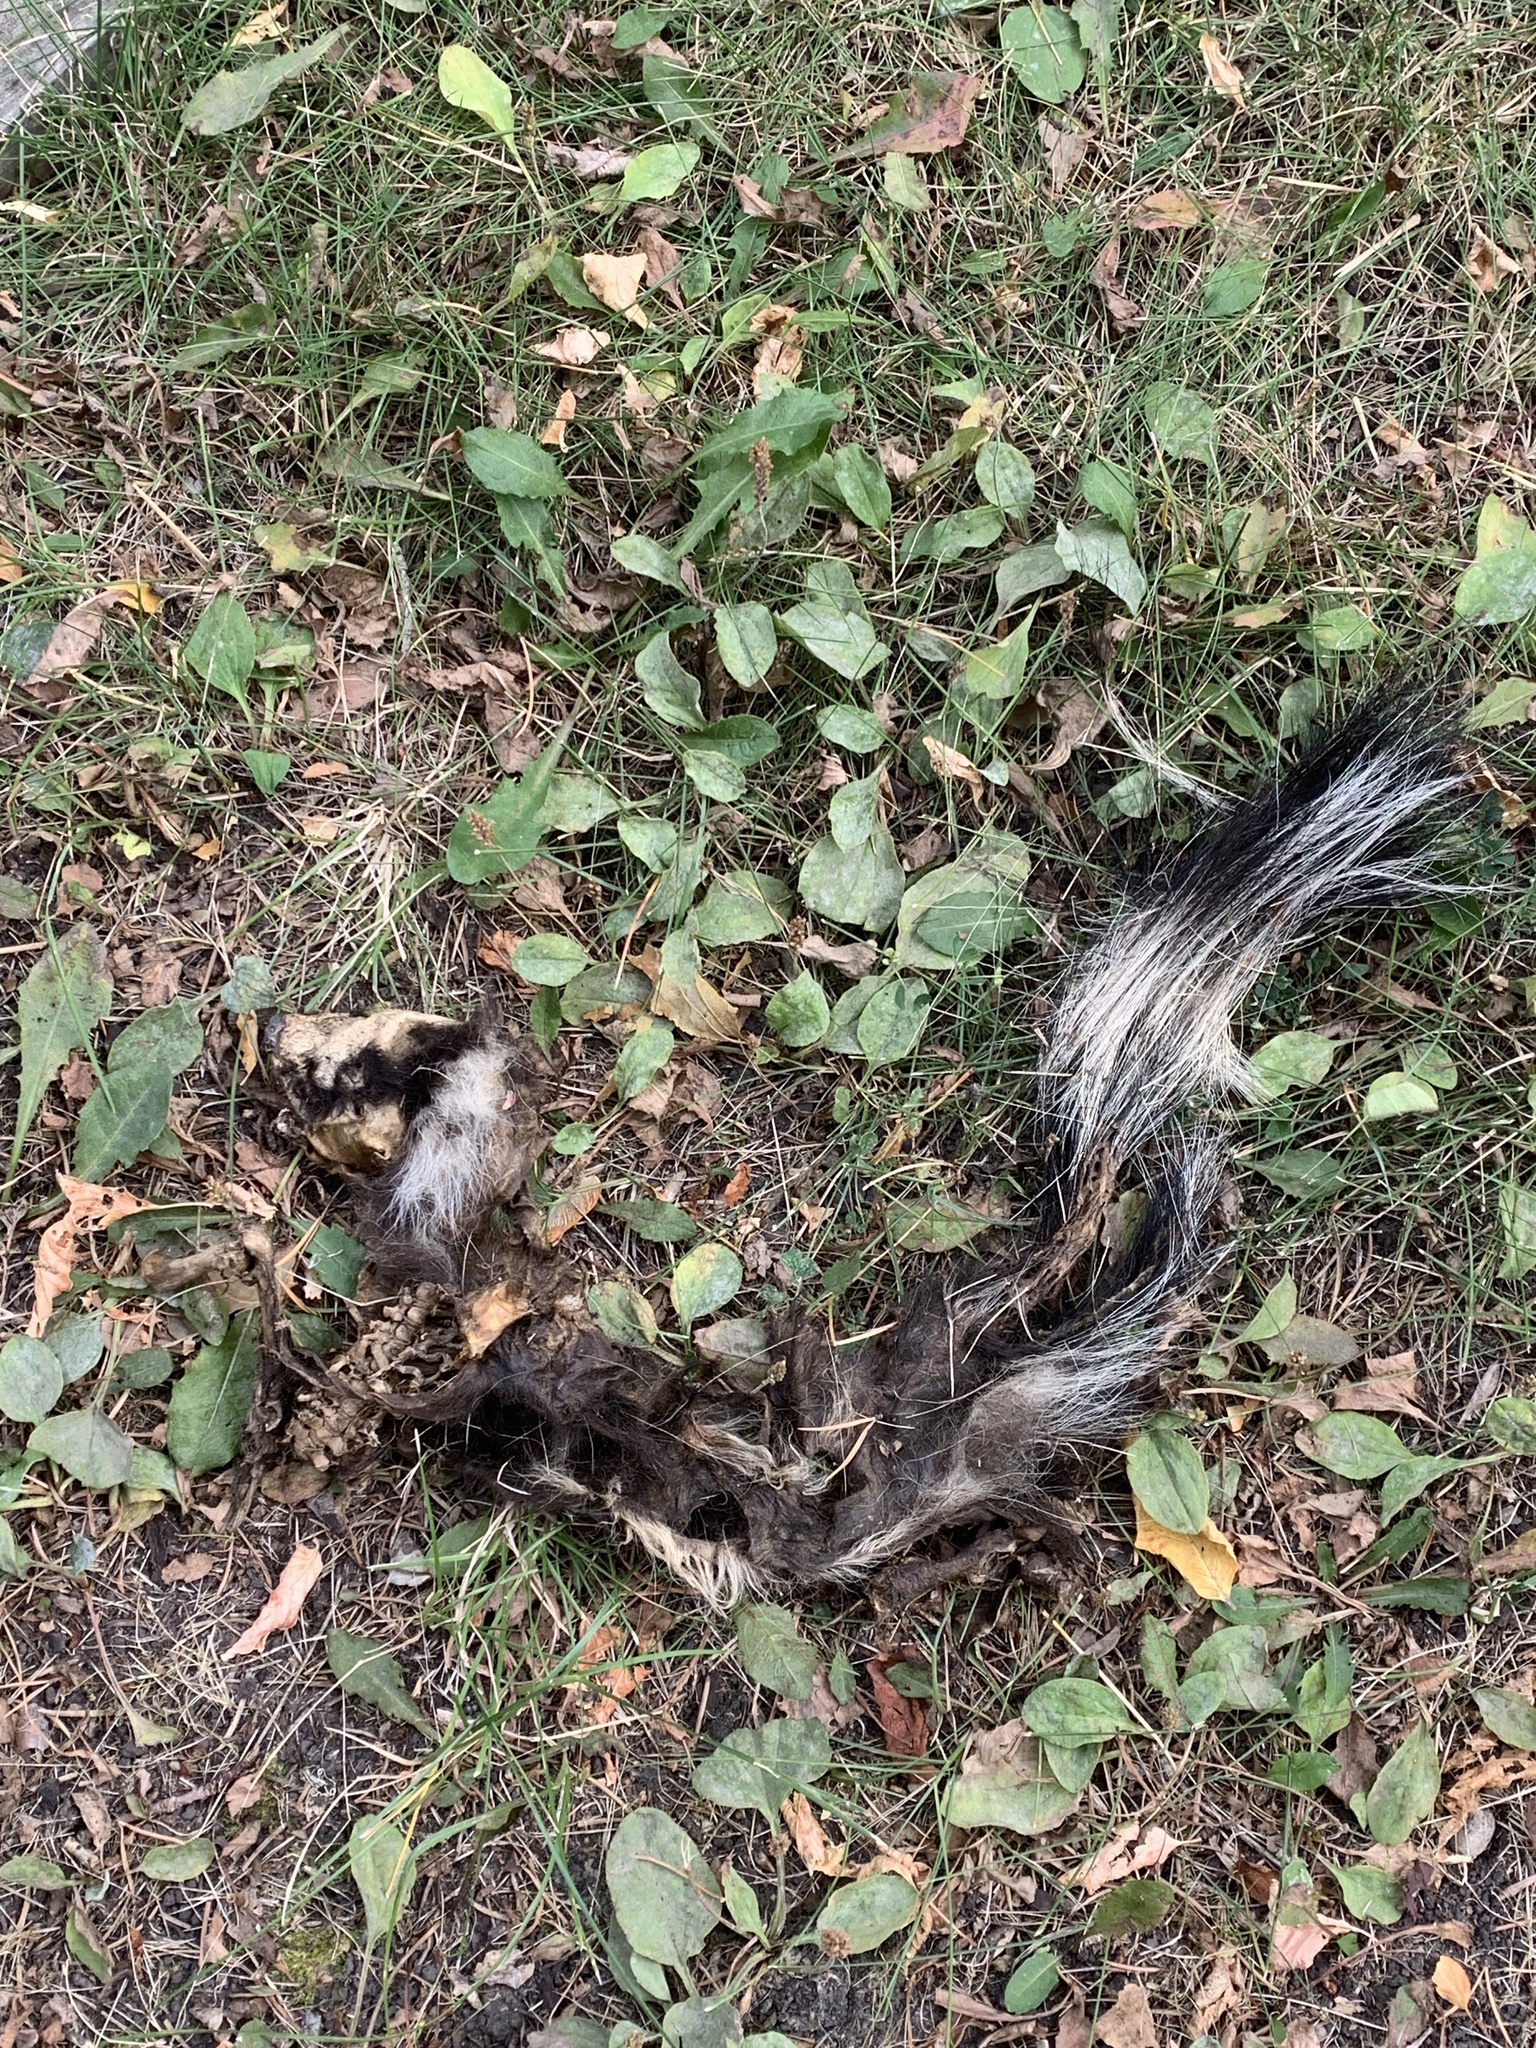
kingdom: Animalia
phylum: Chordata
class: Mammalia
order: Carnivora
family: Mephitidae
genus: Mephitis
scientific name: Mephitis mephitis
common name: Striped skunk
